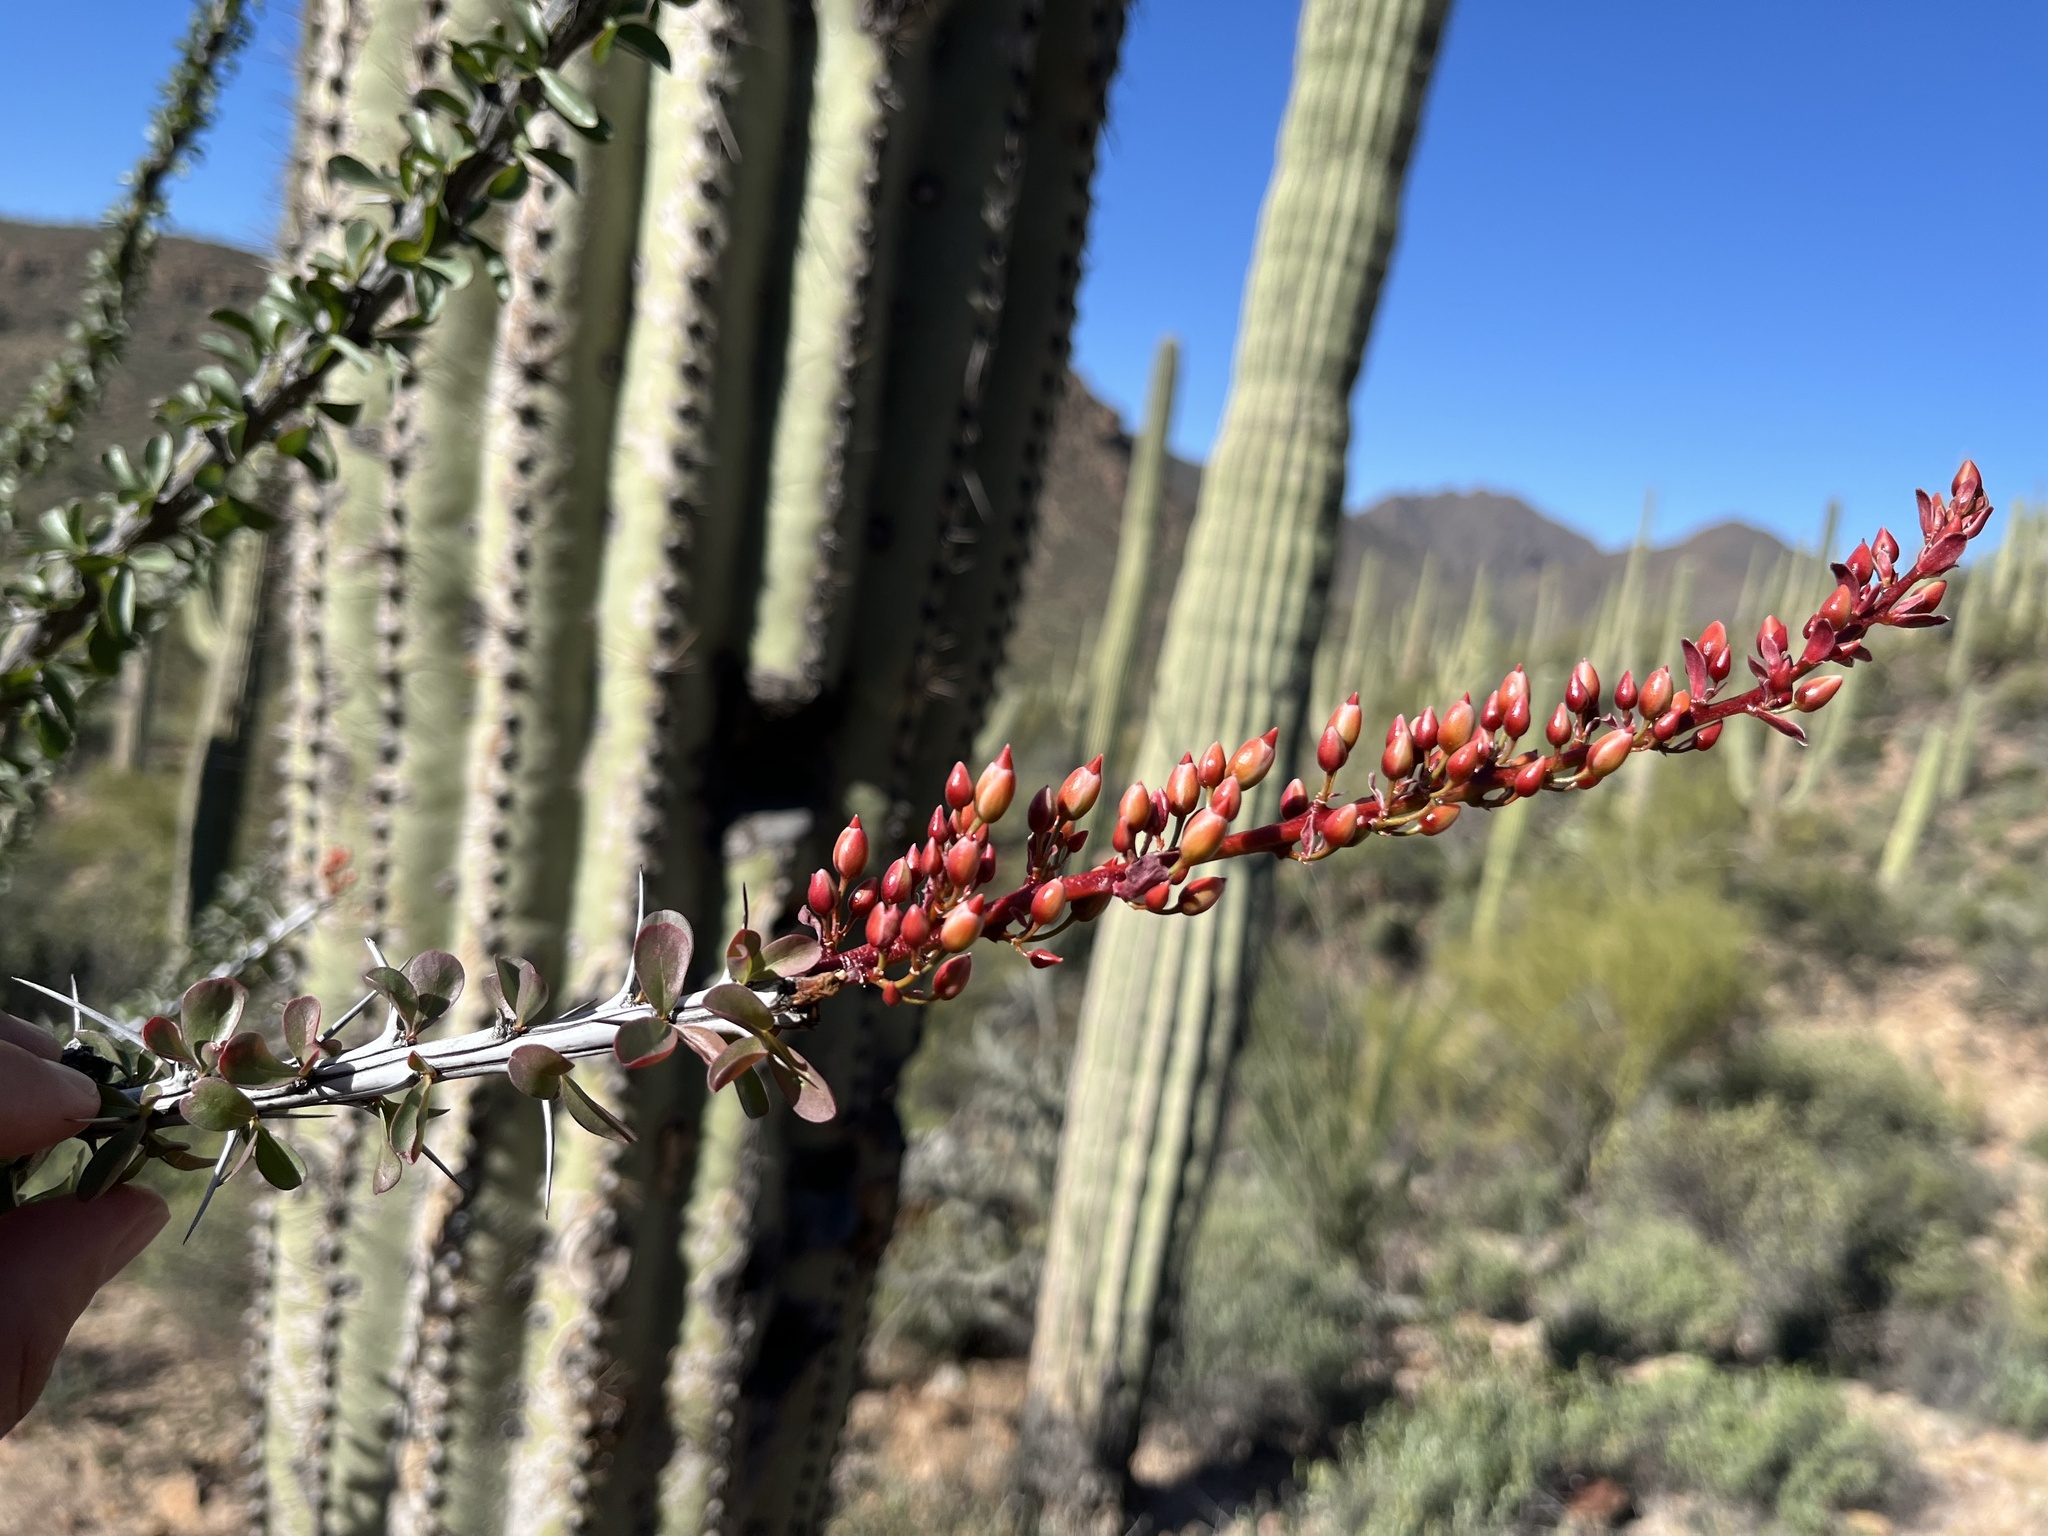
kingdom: Plantae
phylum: Tracheophyta
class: Magnoliopsida
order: Ericales
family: Fouquieriaceae
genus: Fouquieria
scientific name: Fouquieria splendens
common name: Vine-cactus
